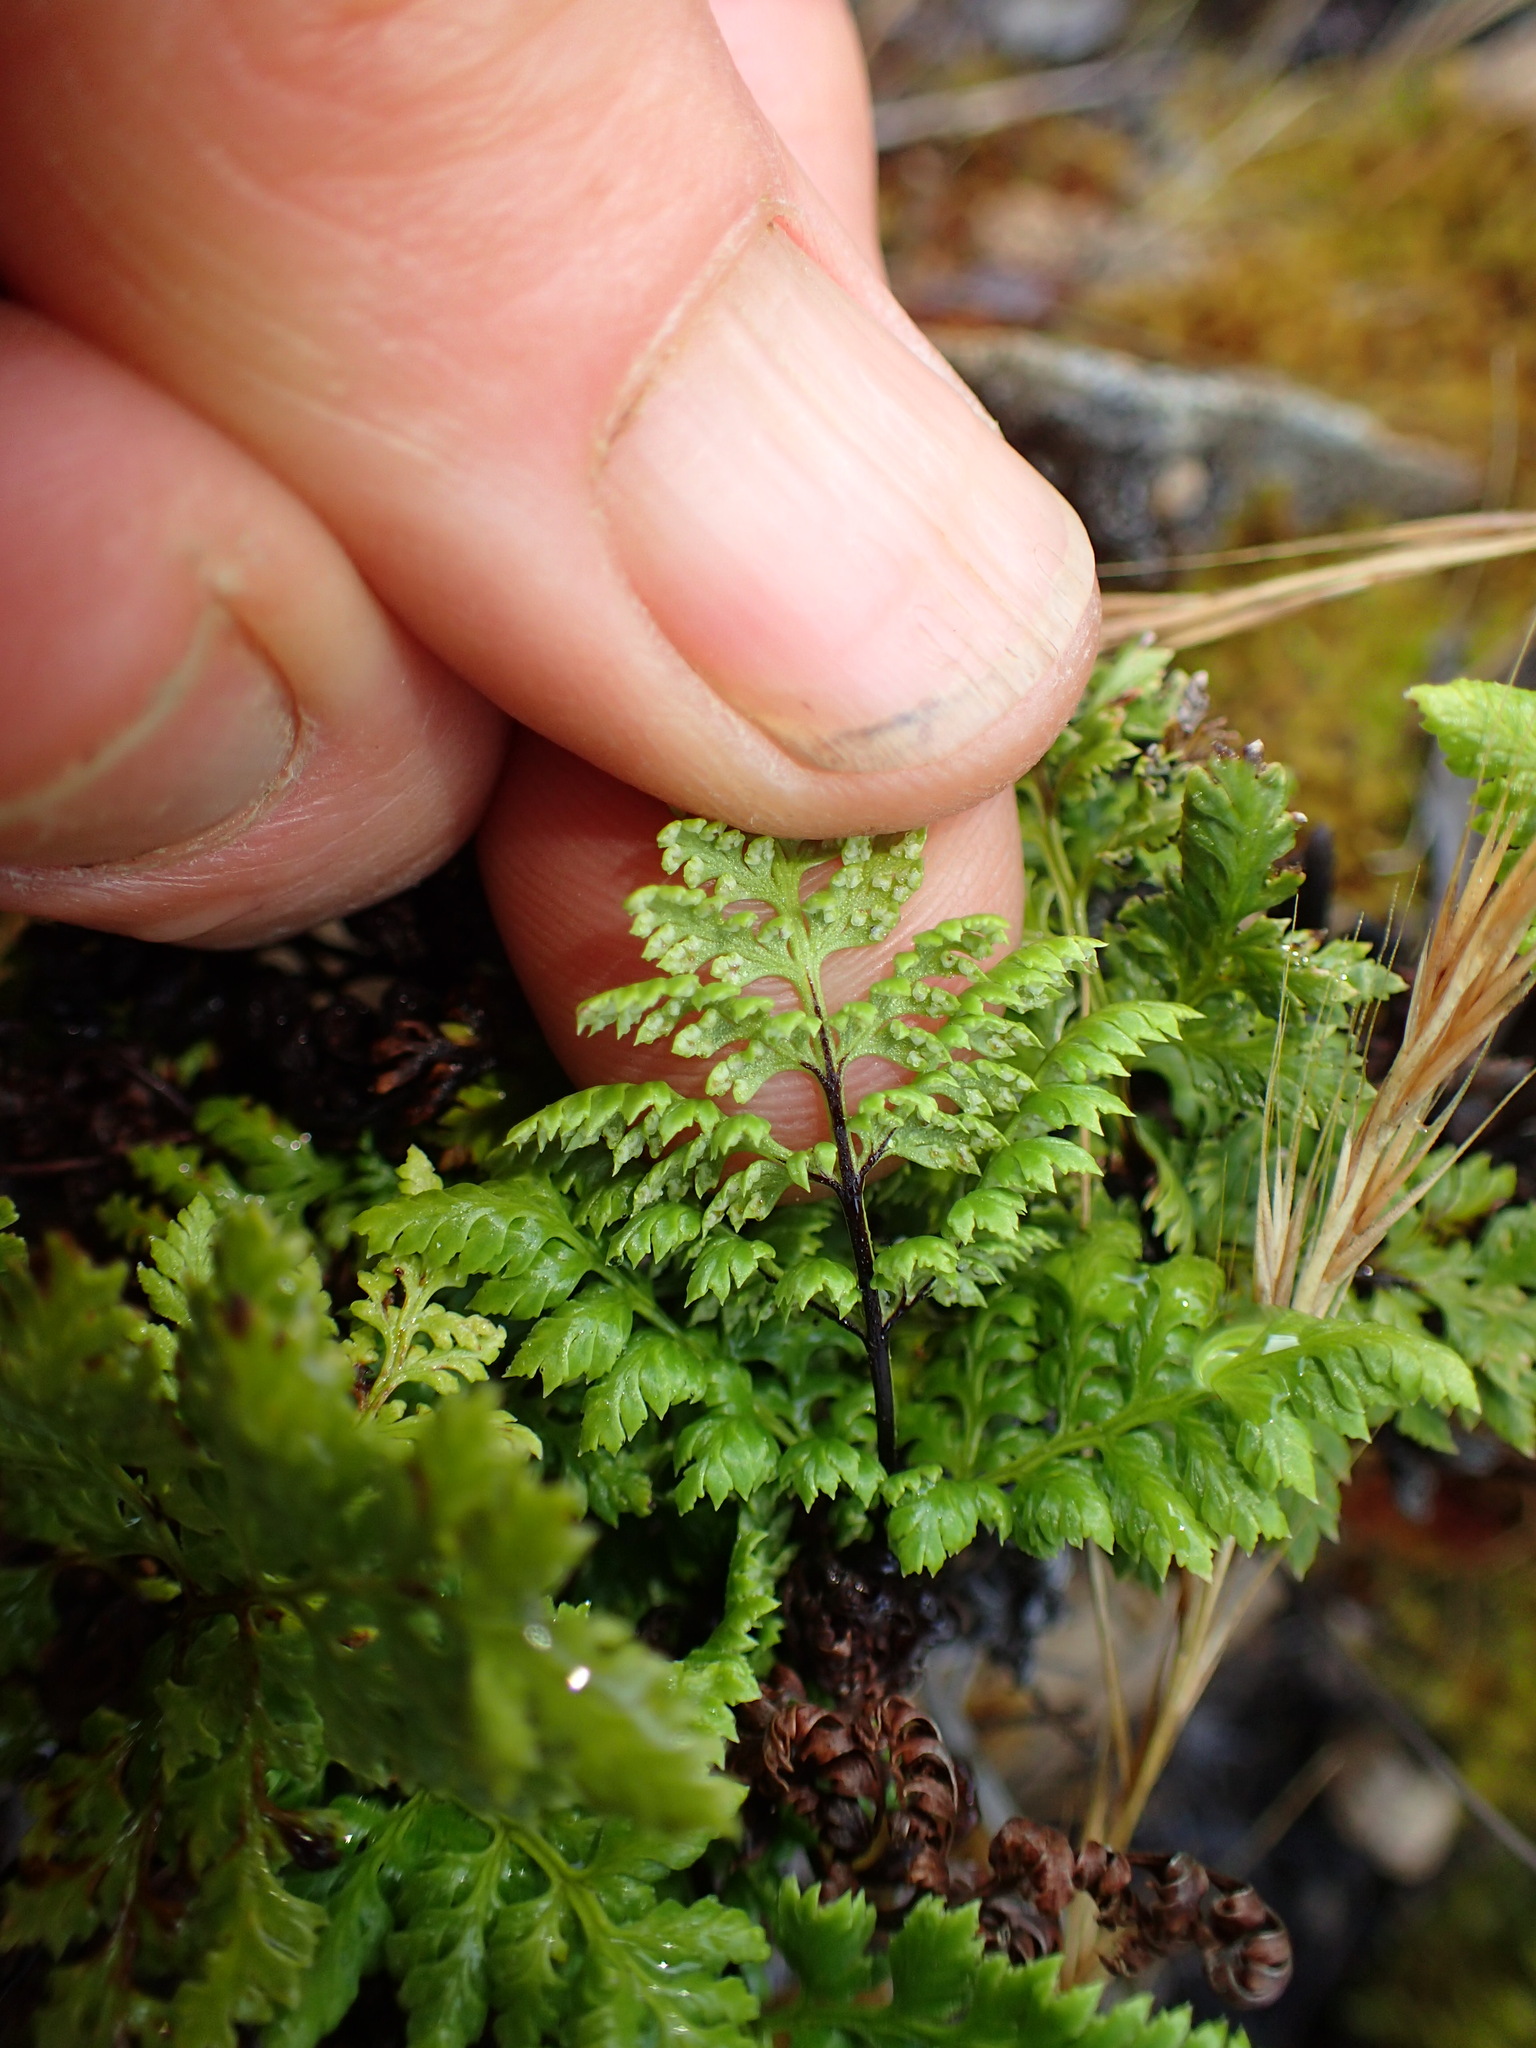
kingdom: Plantae
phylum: Tracheophyta
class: Polypodiopsida
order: Polypodiales
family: Pteridaceae
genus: Aspidotis
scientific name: Aspidotis californica
